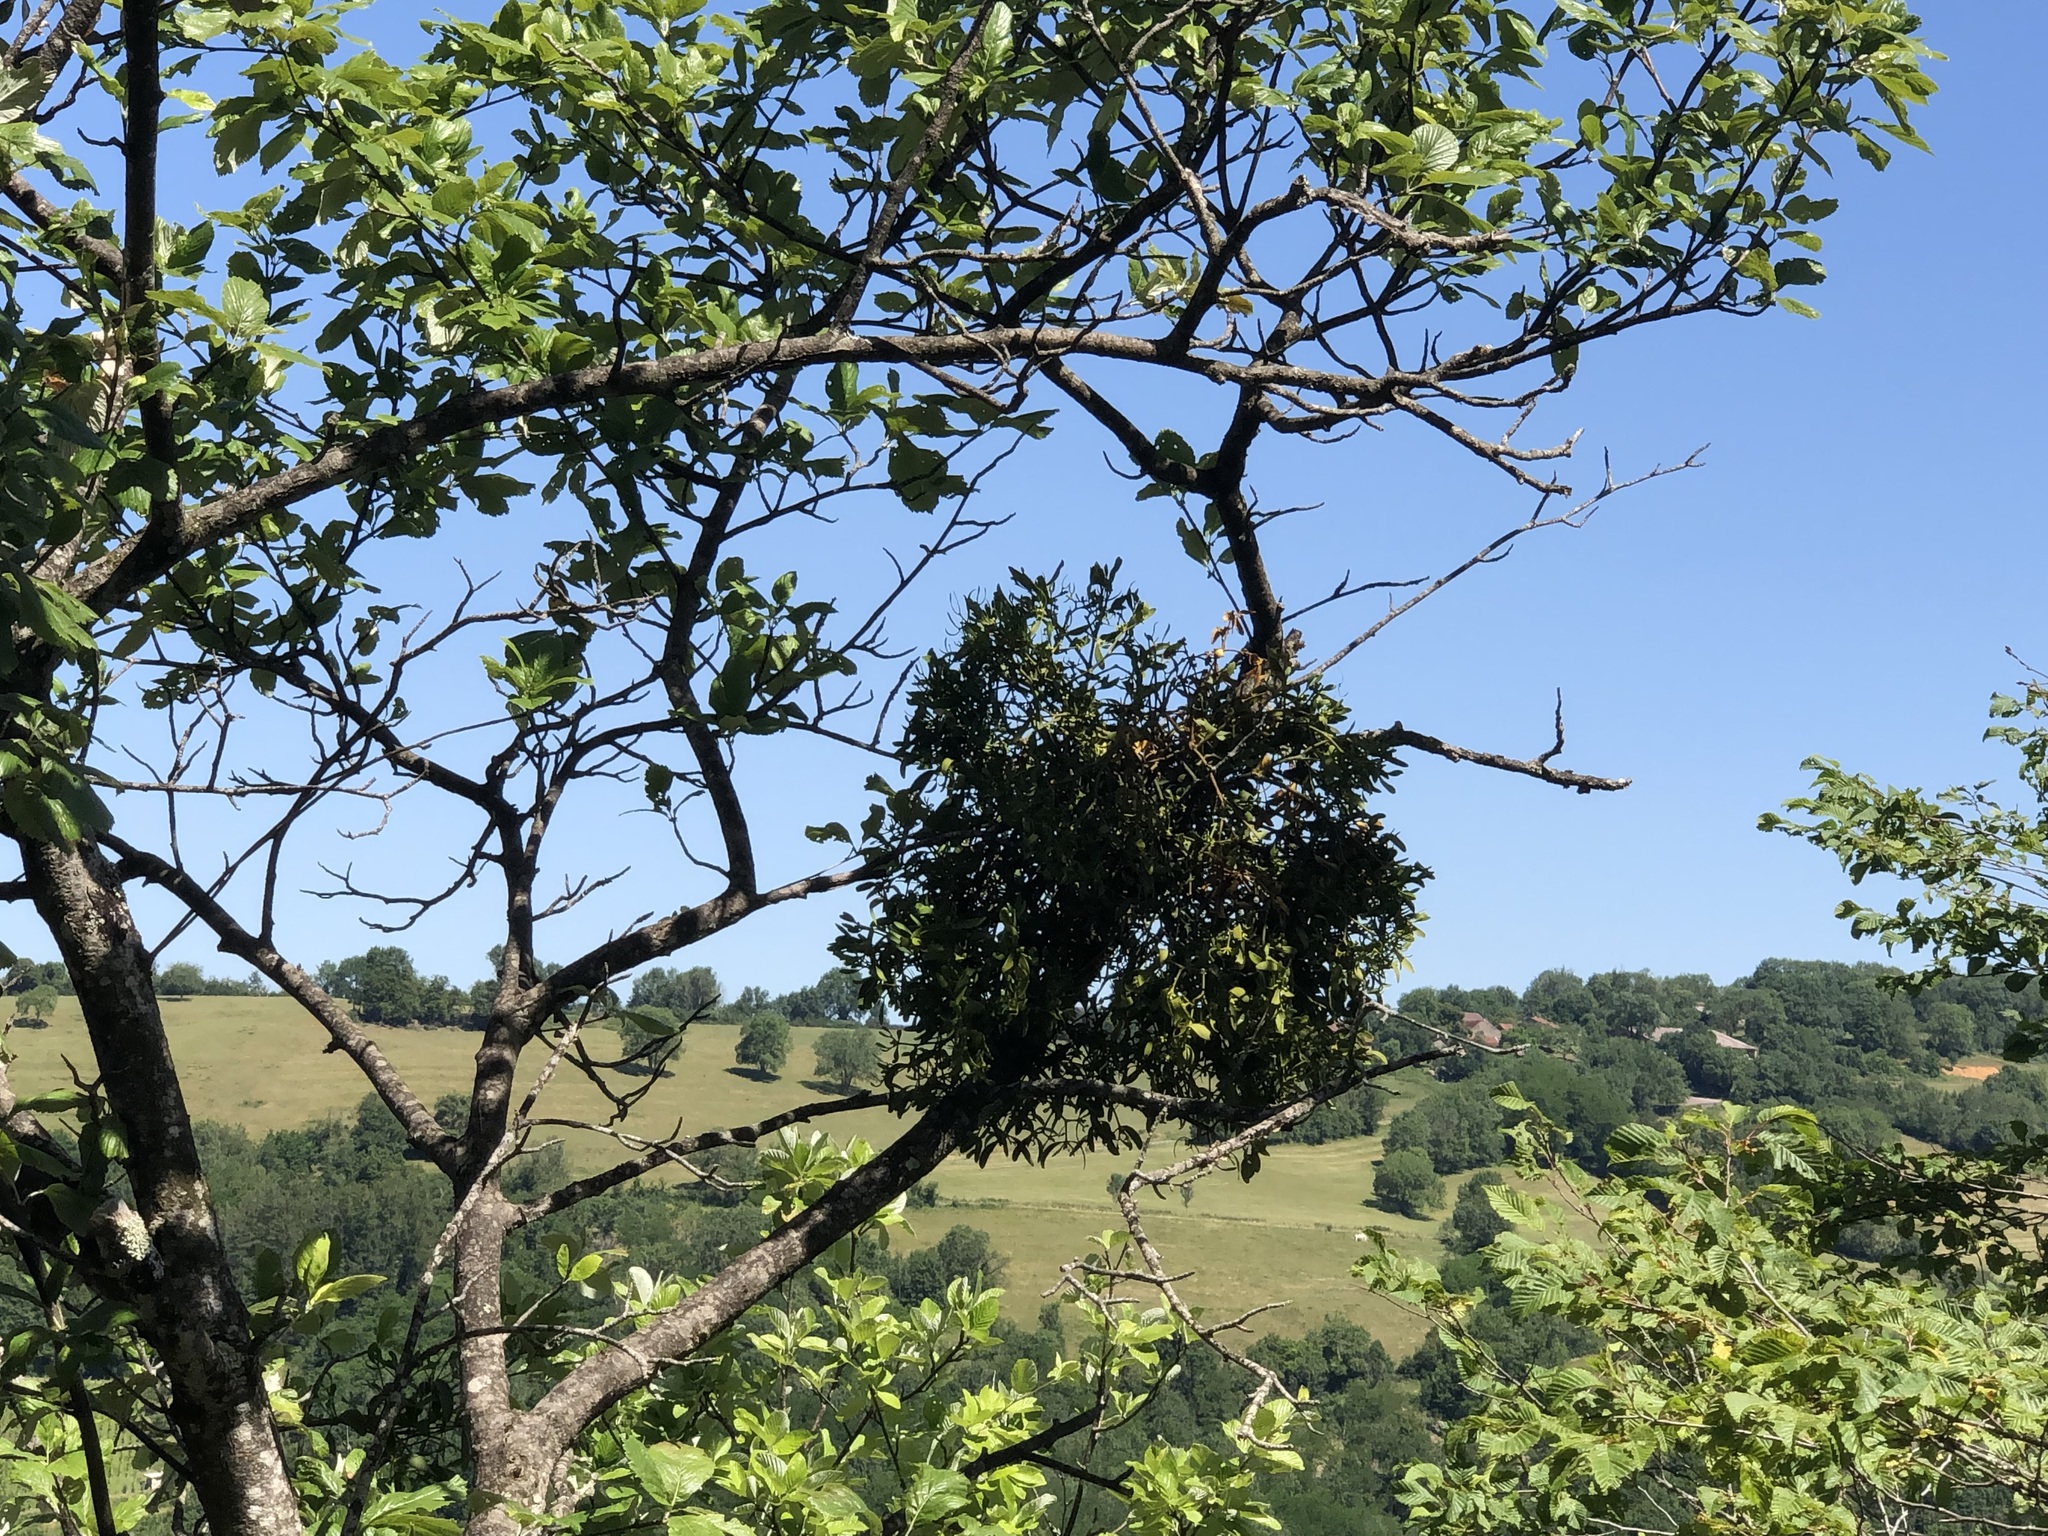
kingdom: Plantae
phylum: Tracheophyta
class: Magnoliopsida
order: Santalales
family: Viscaceae
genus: Viscum
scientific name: Viscum album
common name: Mistletoe
